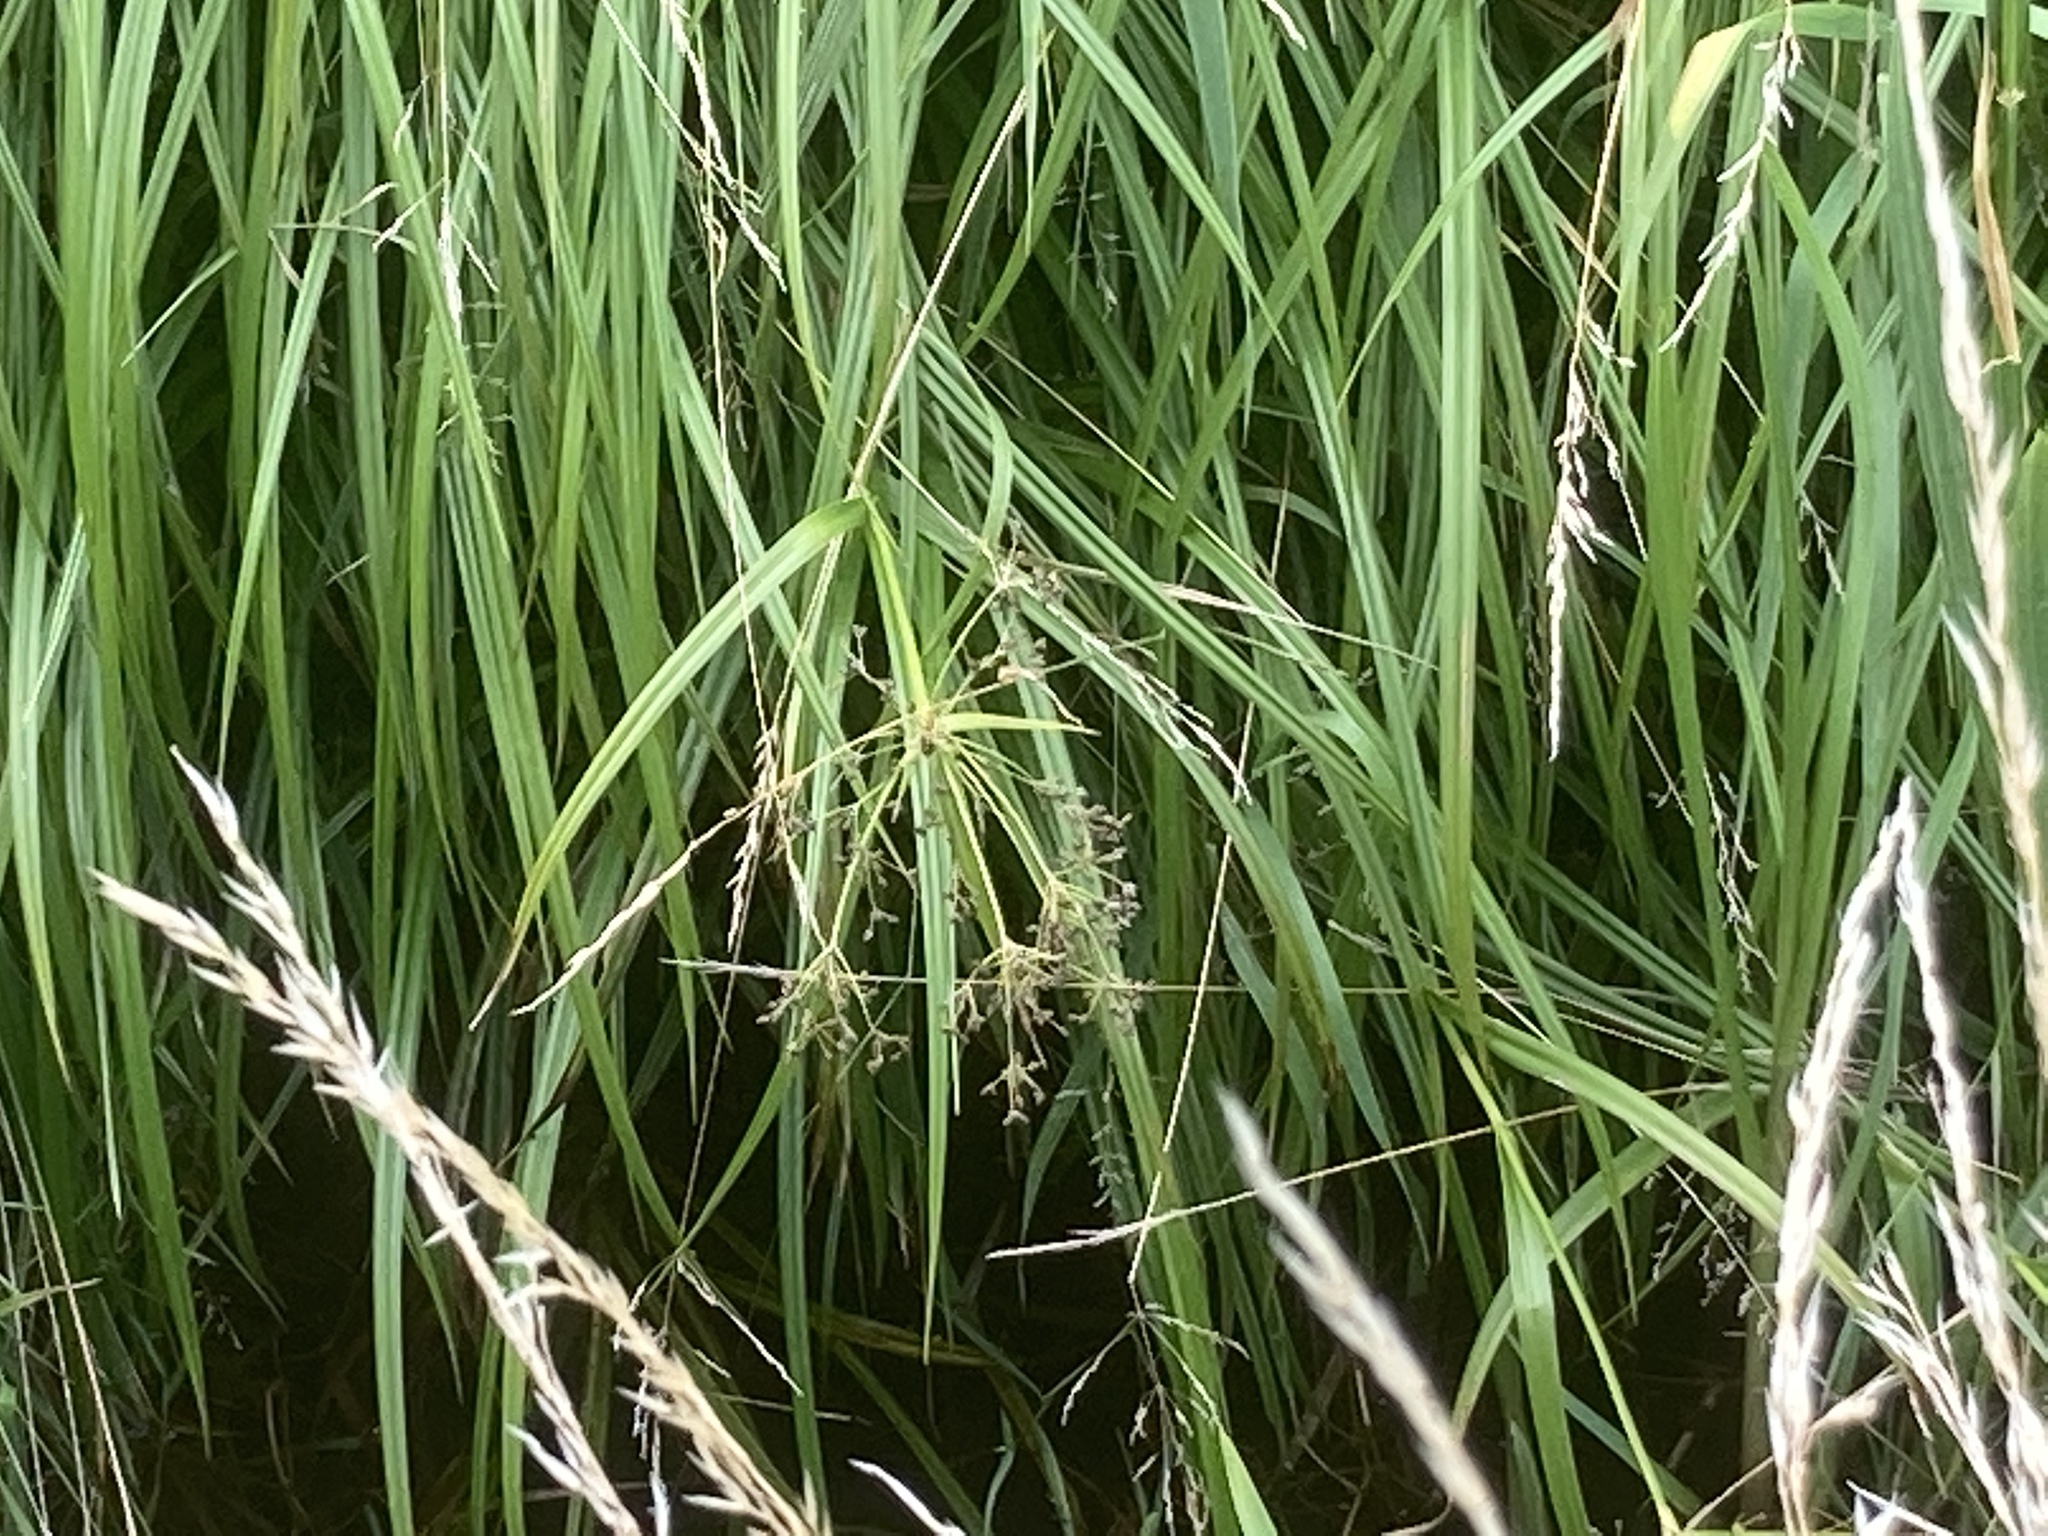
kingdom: Plantae
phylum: Tracheophyta
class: Liliopsida
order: Poales
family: Cyperaceae
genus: Scirpus
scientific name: Scirpus sylvaticus
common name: Wood club-rush
